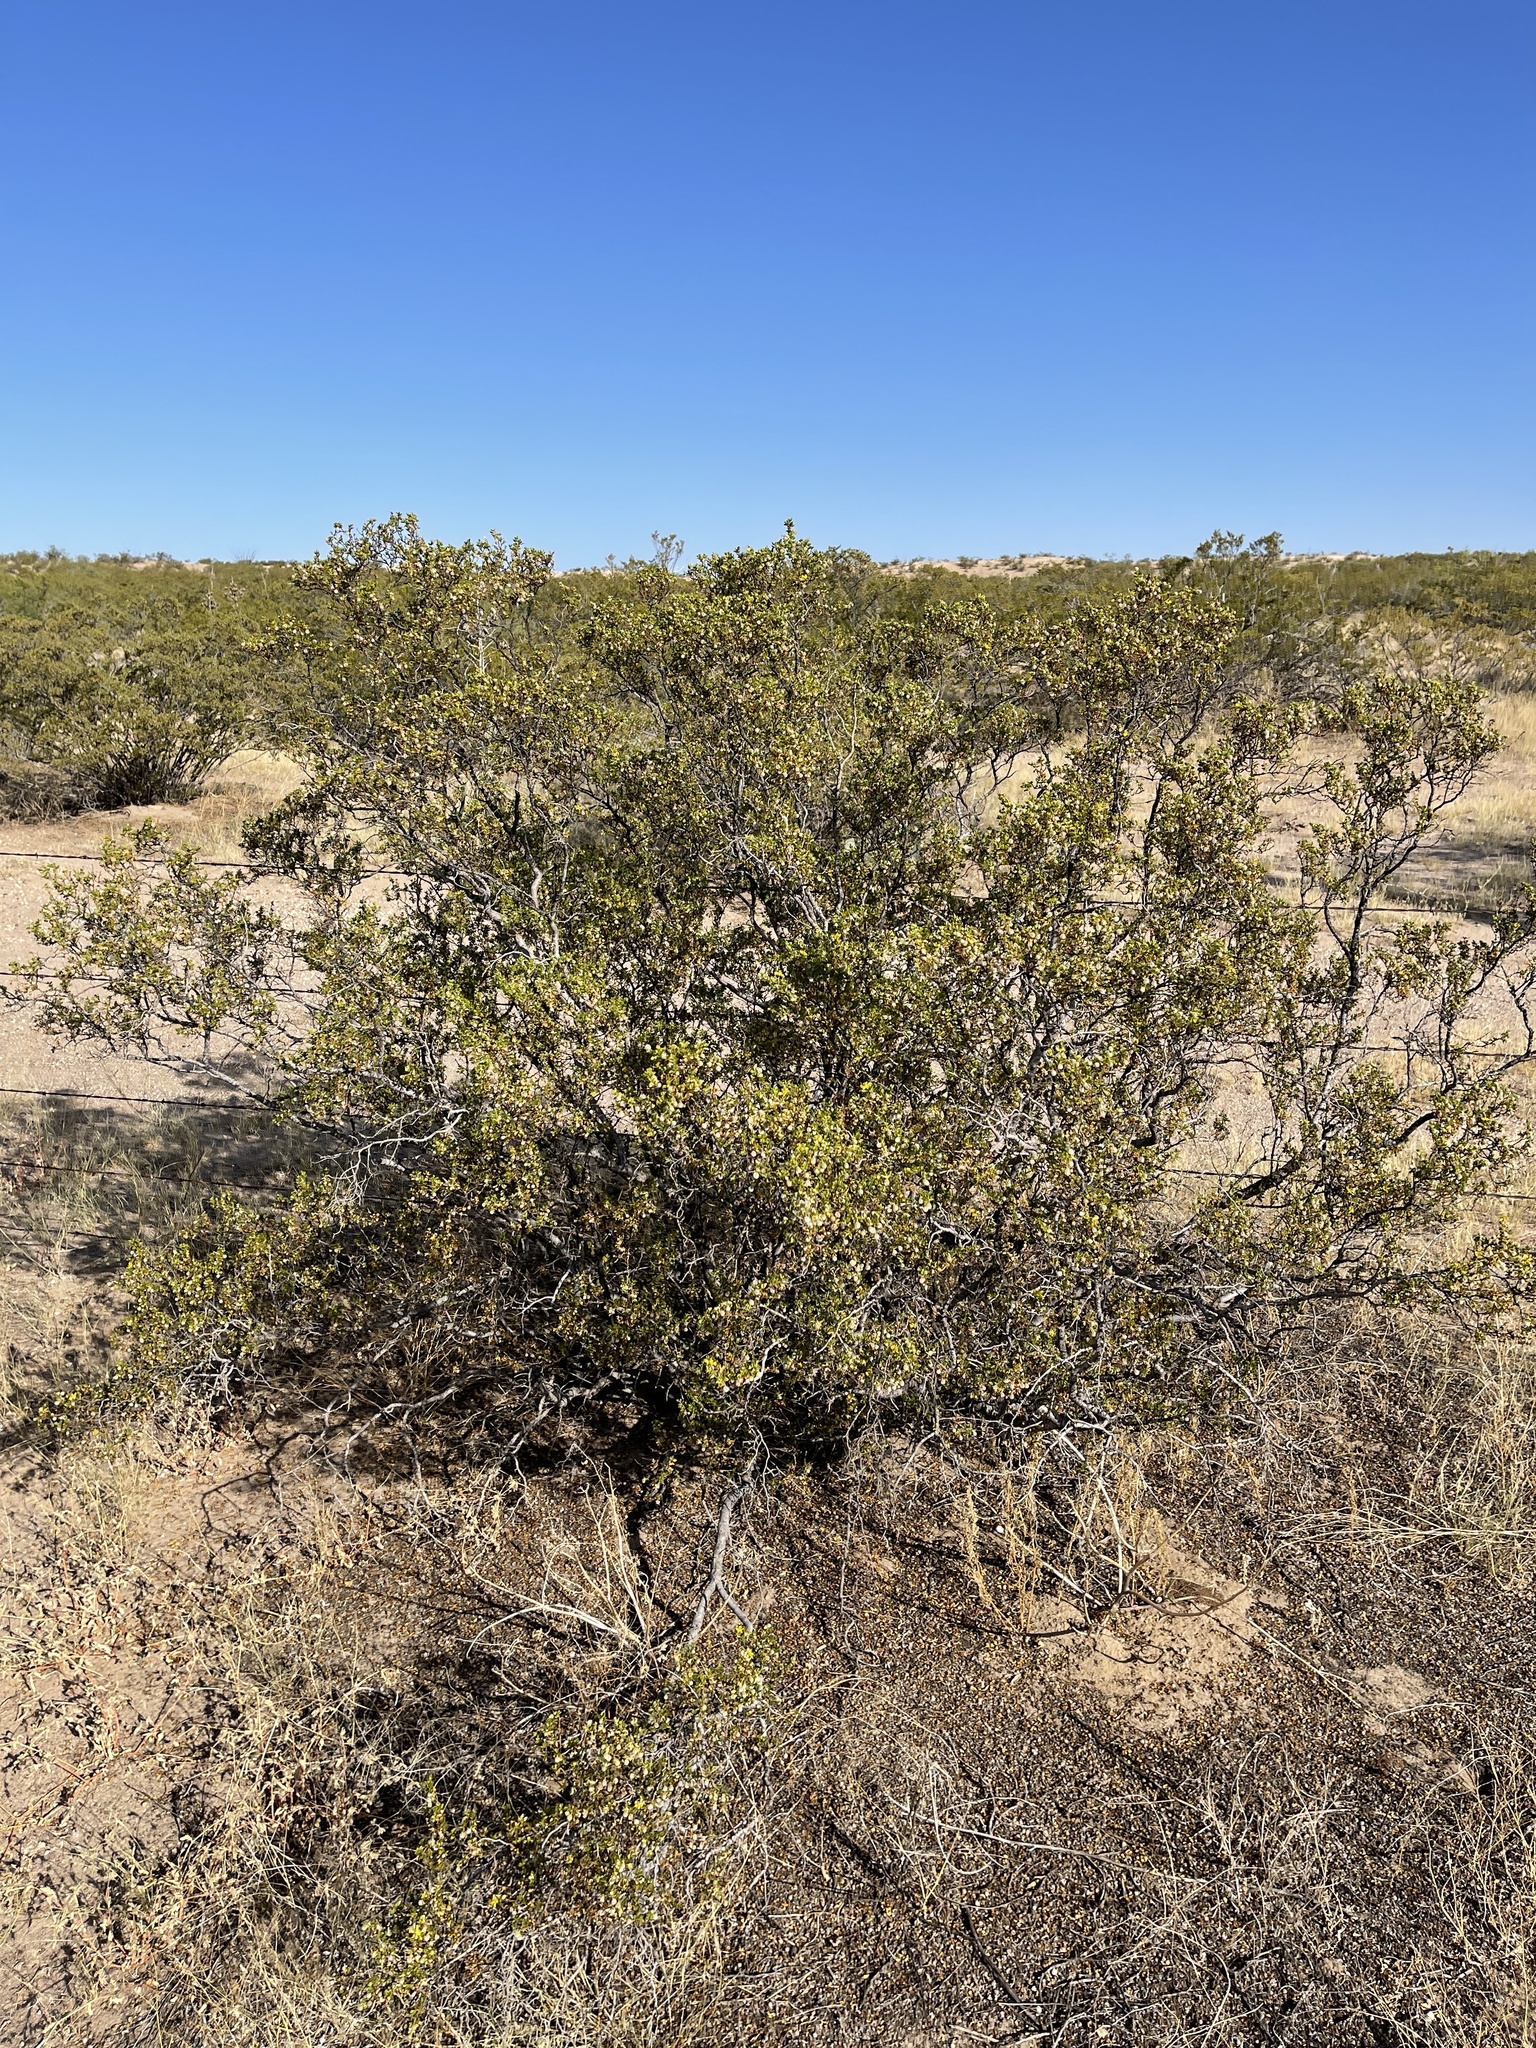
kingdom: Plantae
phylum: Tracheophyta
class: Magnoliopsida
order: Zygophyllales
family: Zygophyllaceae
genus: Larrea
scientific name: Larrea tridentata
